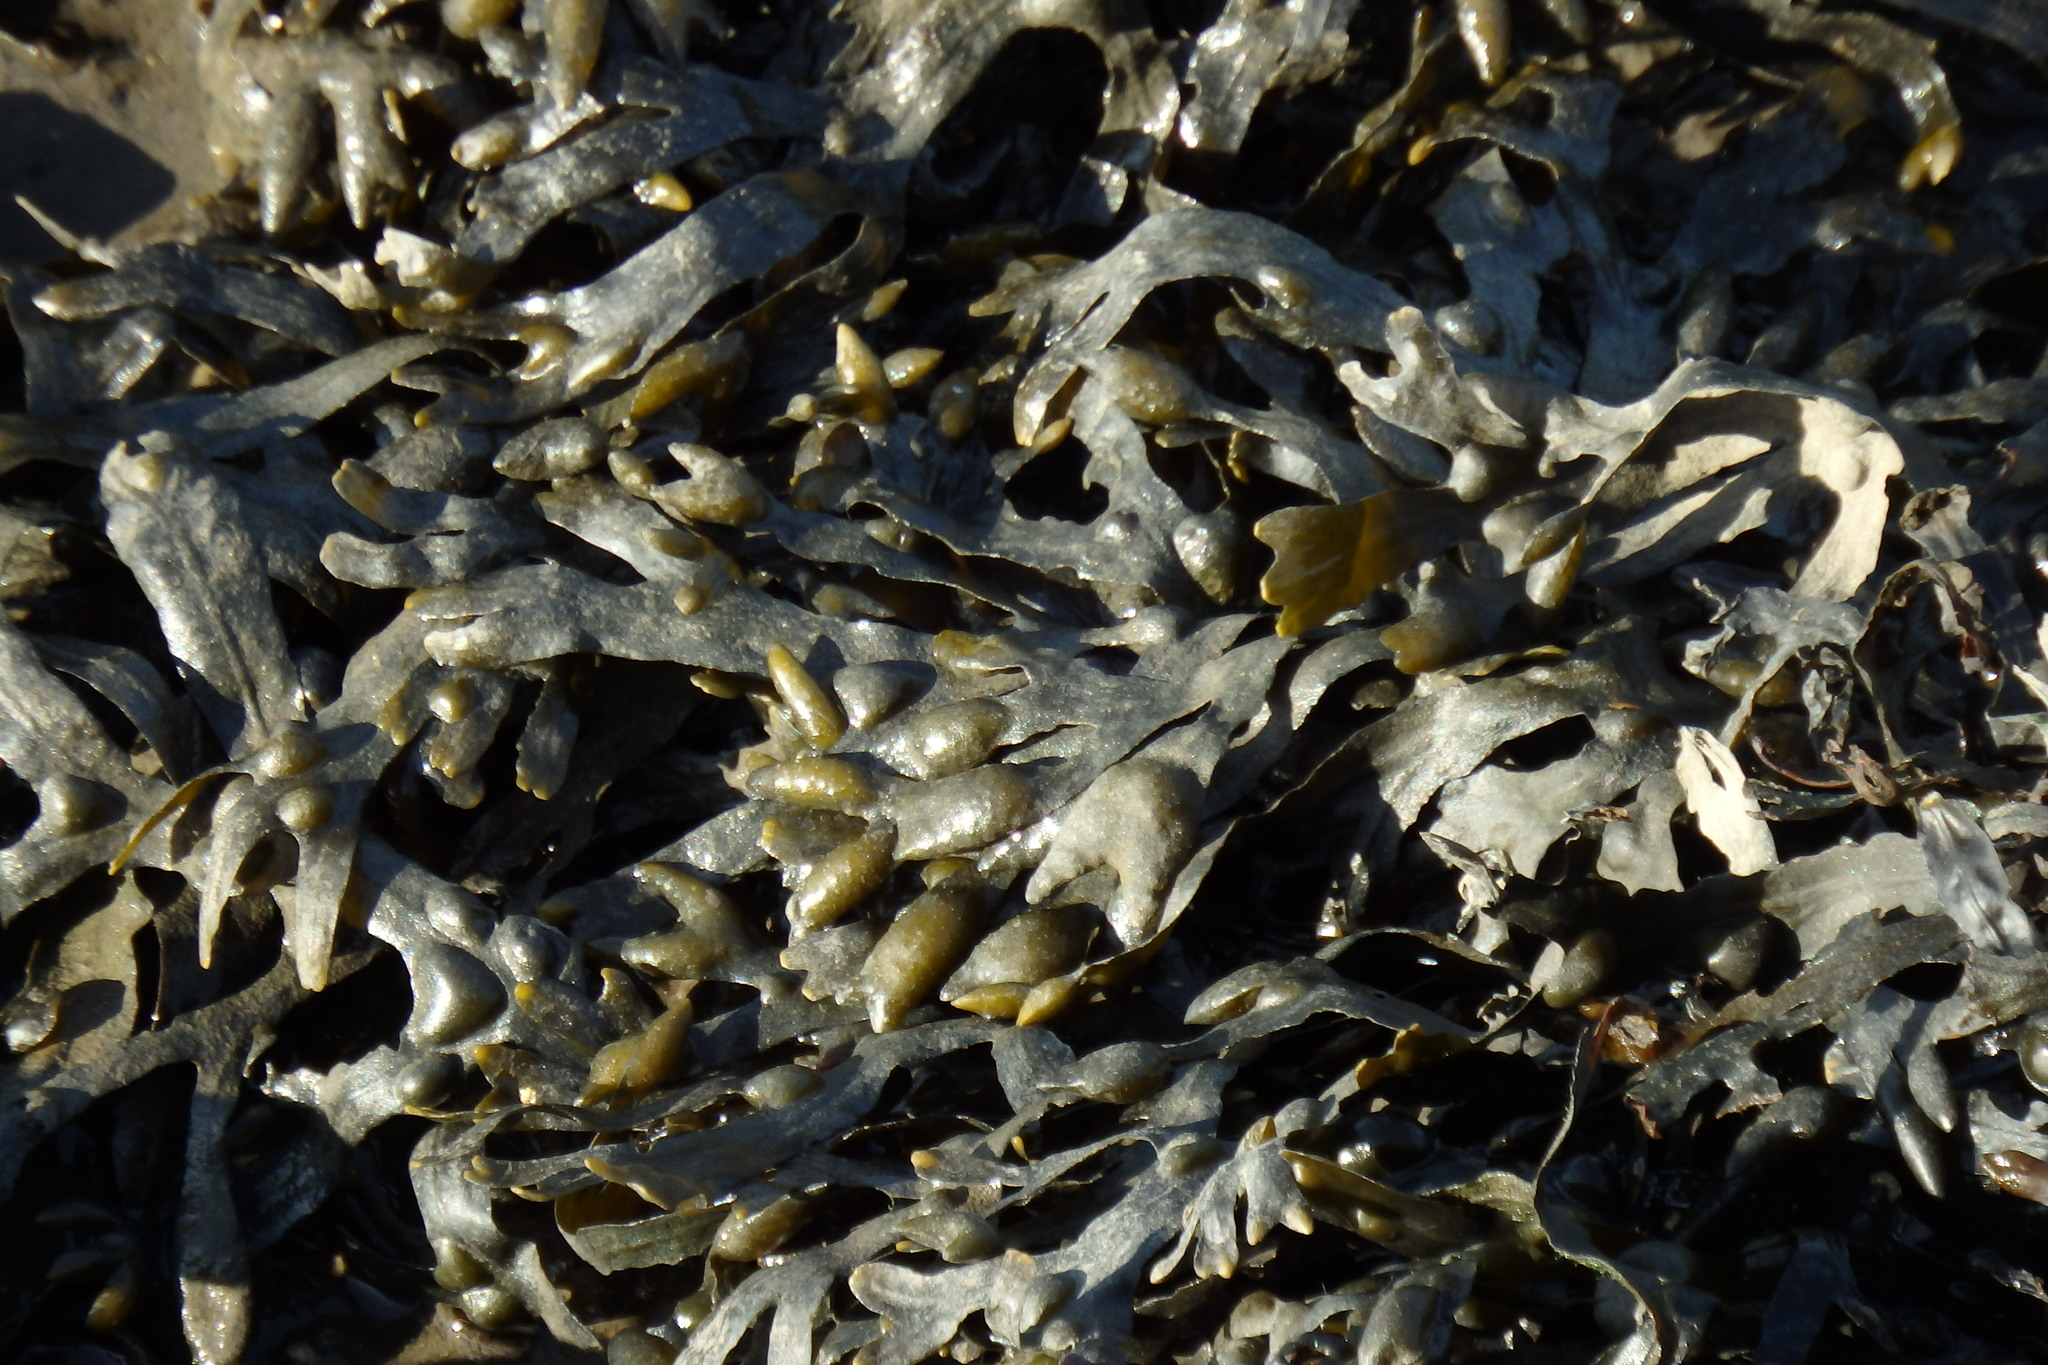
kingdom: Chromista
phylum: Ochrophyta
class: Phaeophyceae
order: Fucales
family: Fucaceae
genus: Fucus
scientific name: Fucus vesiculosus
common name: Bladder wrack
